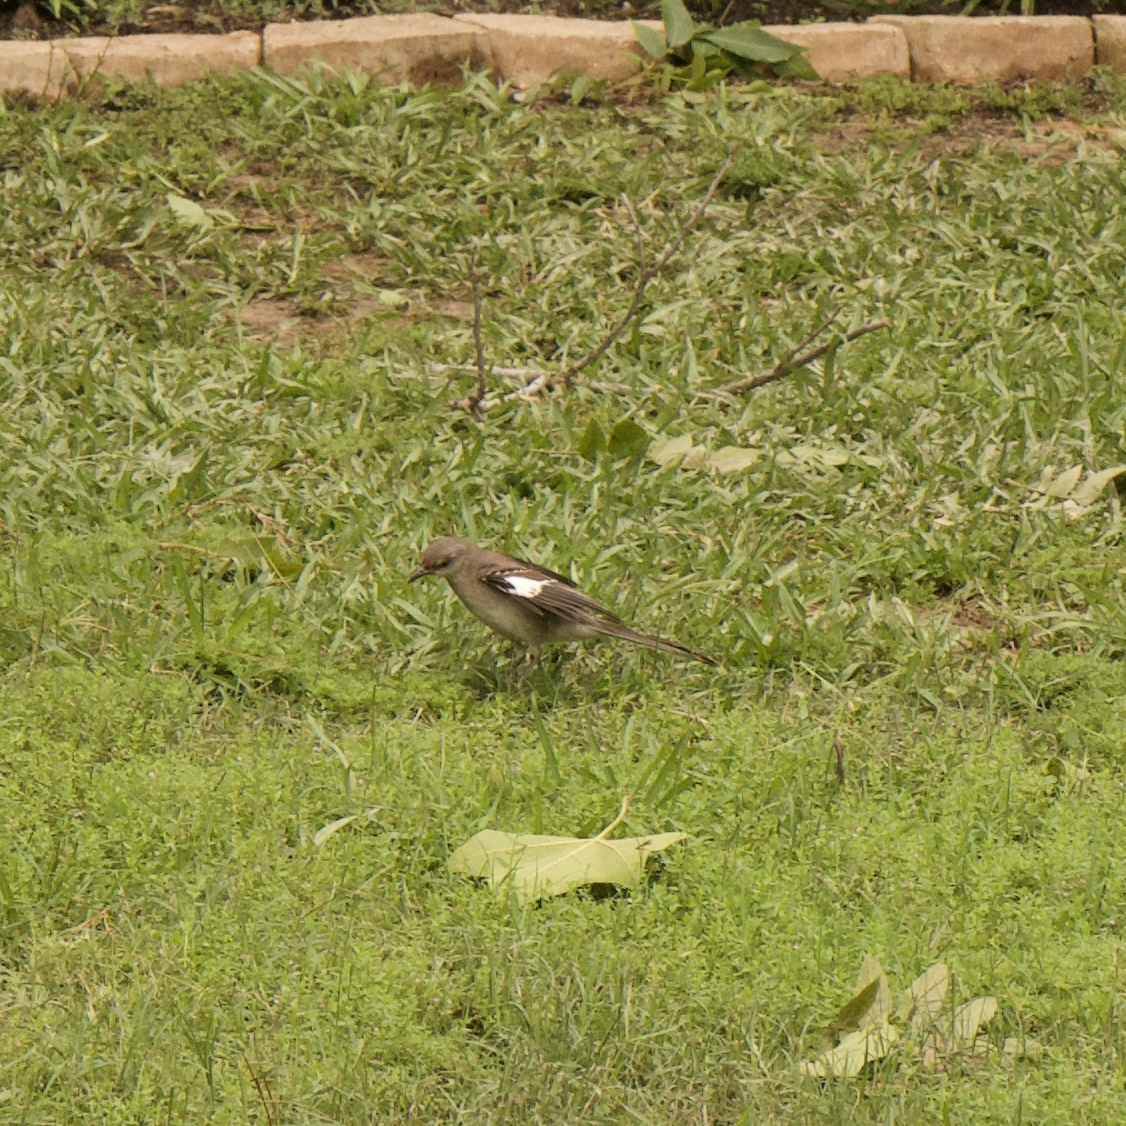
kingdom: Animalia
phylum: Chordata
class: Aves
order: Passeriformes
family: Mimidae
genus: Mimus
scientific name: Mimus polyglottos
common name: Northern mockingbird
